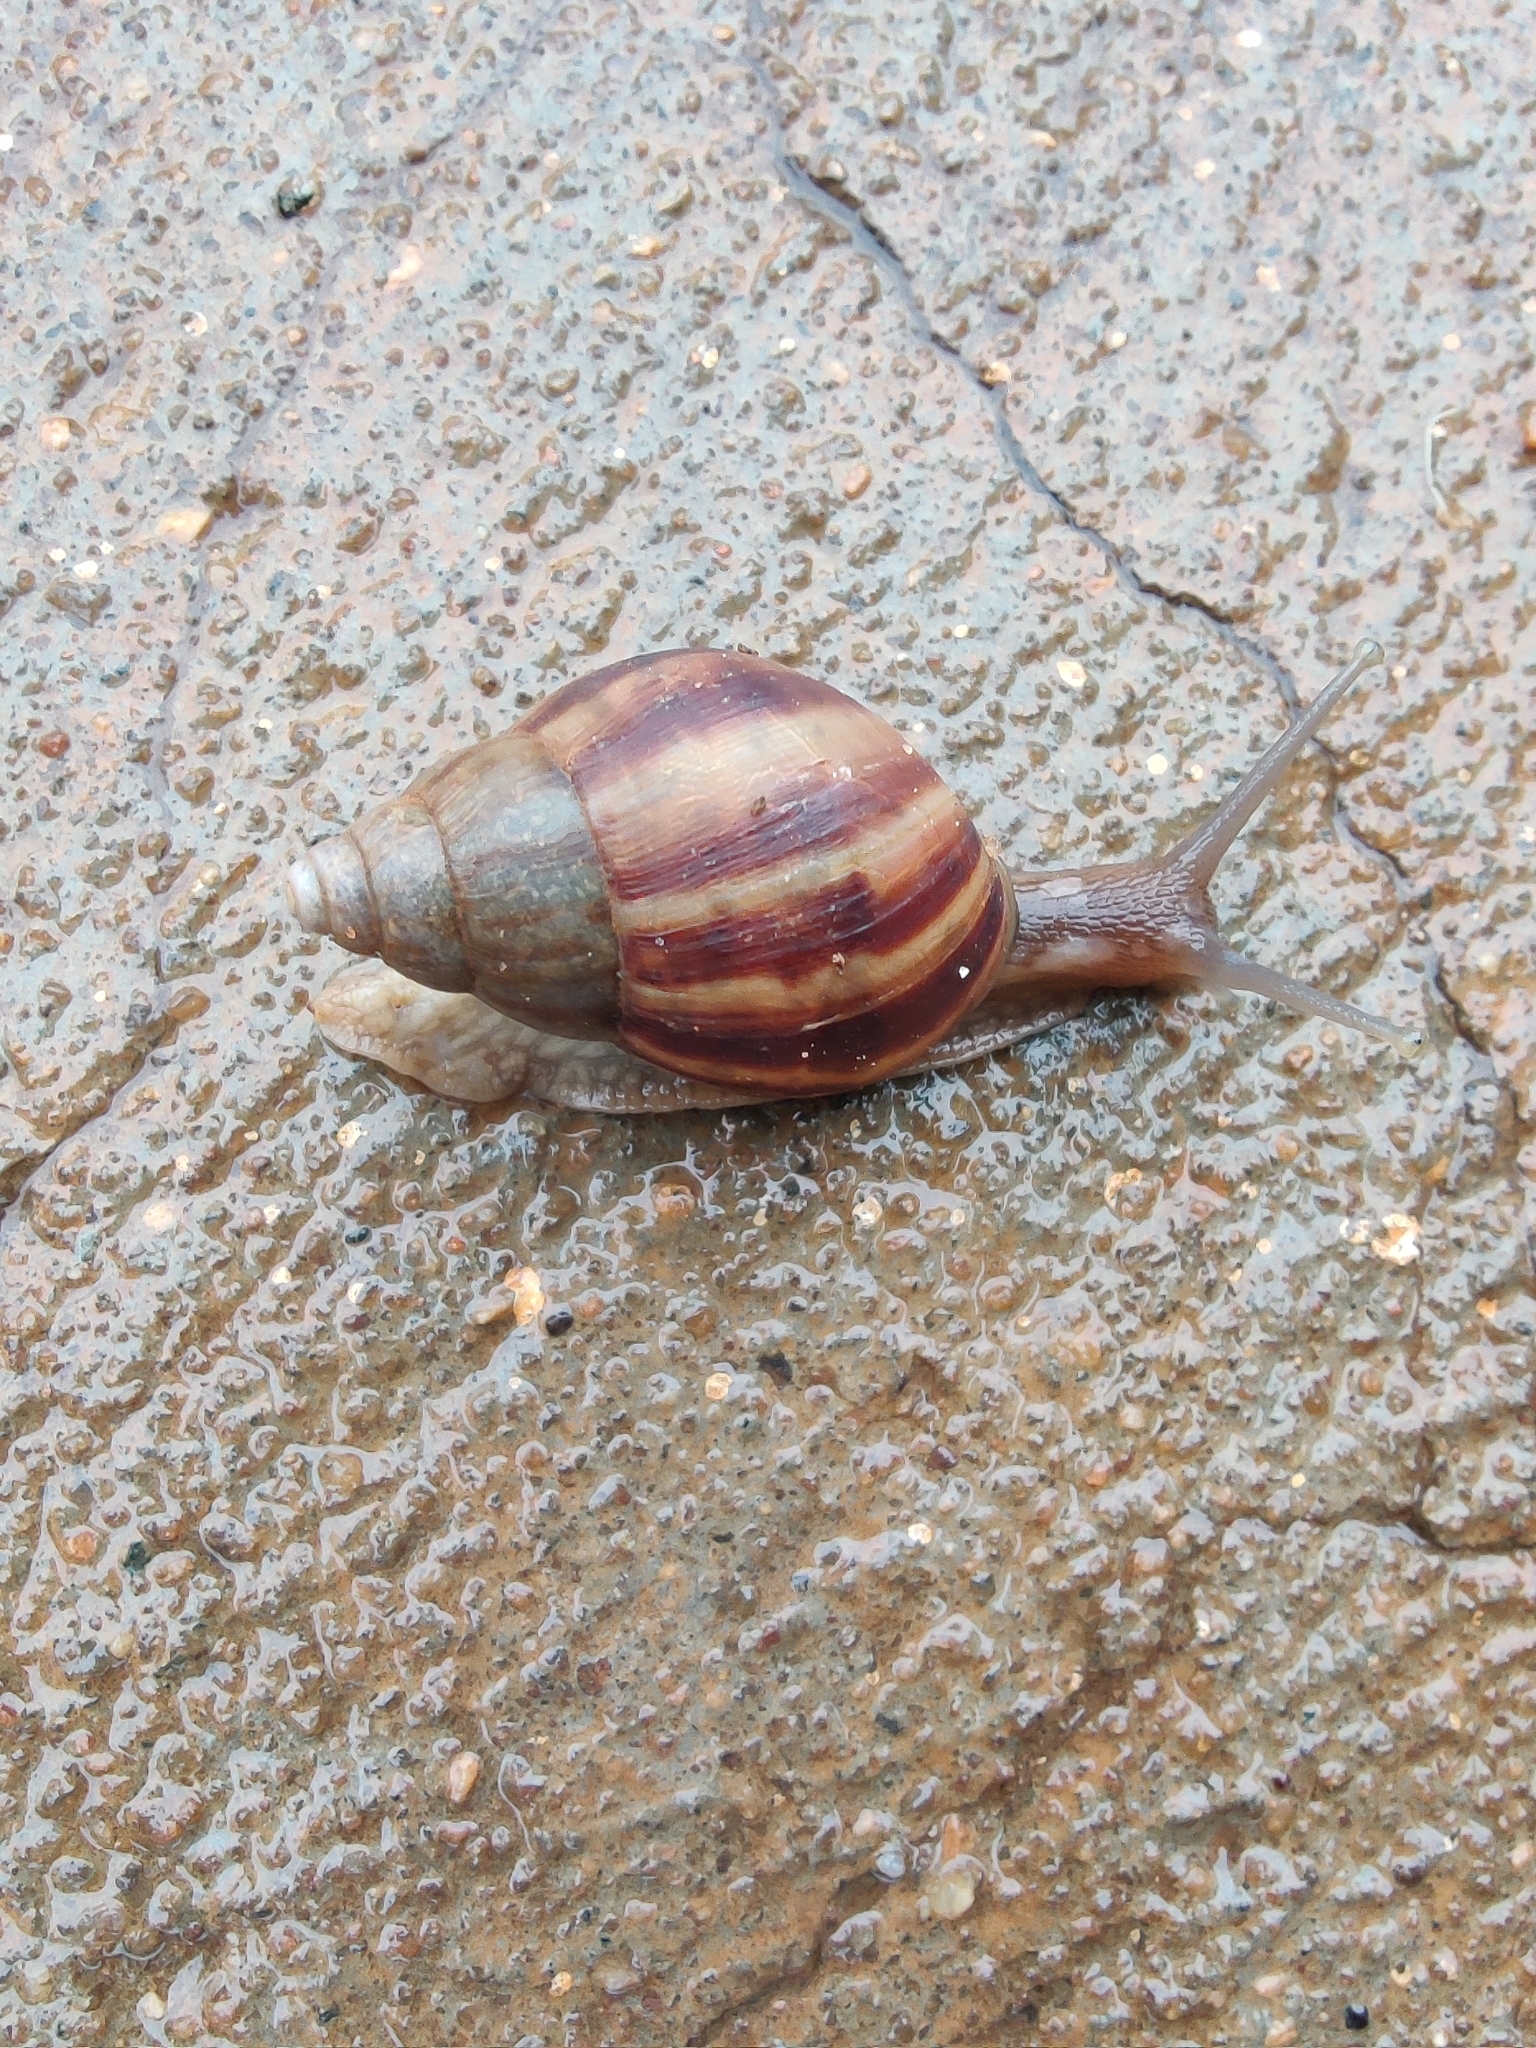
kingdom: Animalia
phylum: Mollusca
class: Gastropoda
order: Stylommatophora
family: Achatinidae
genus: Lissachatina
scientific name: Lissachatina fulica
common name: Giant african snail
